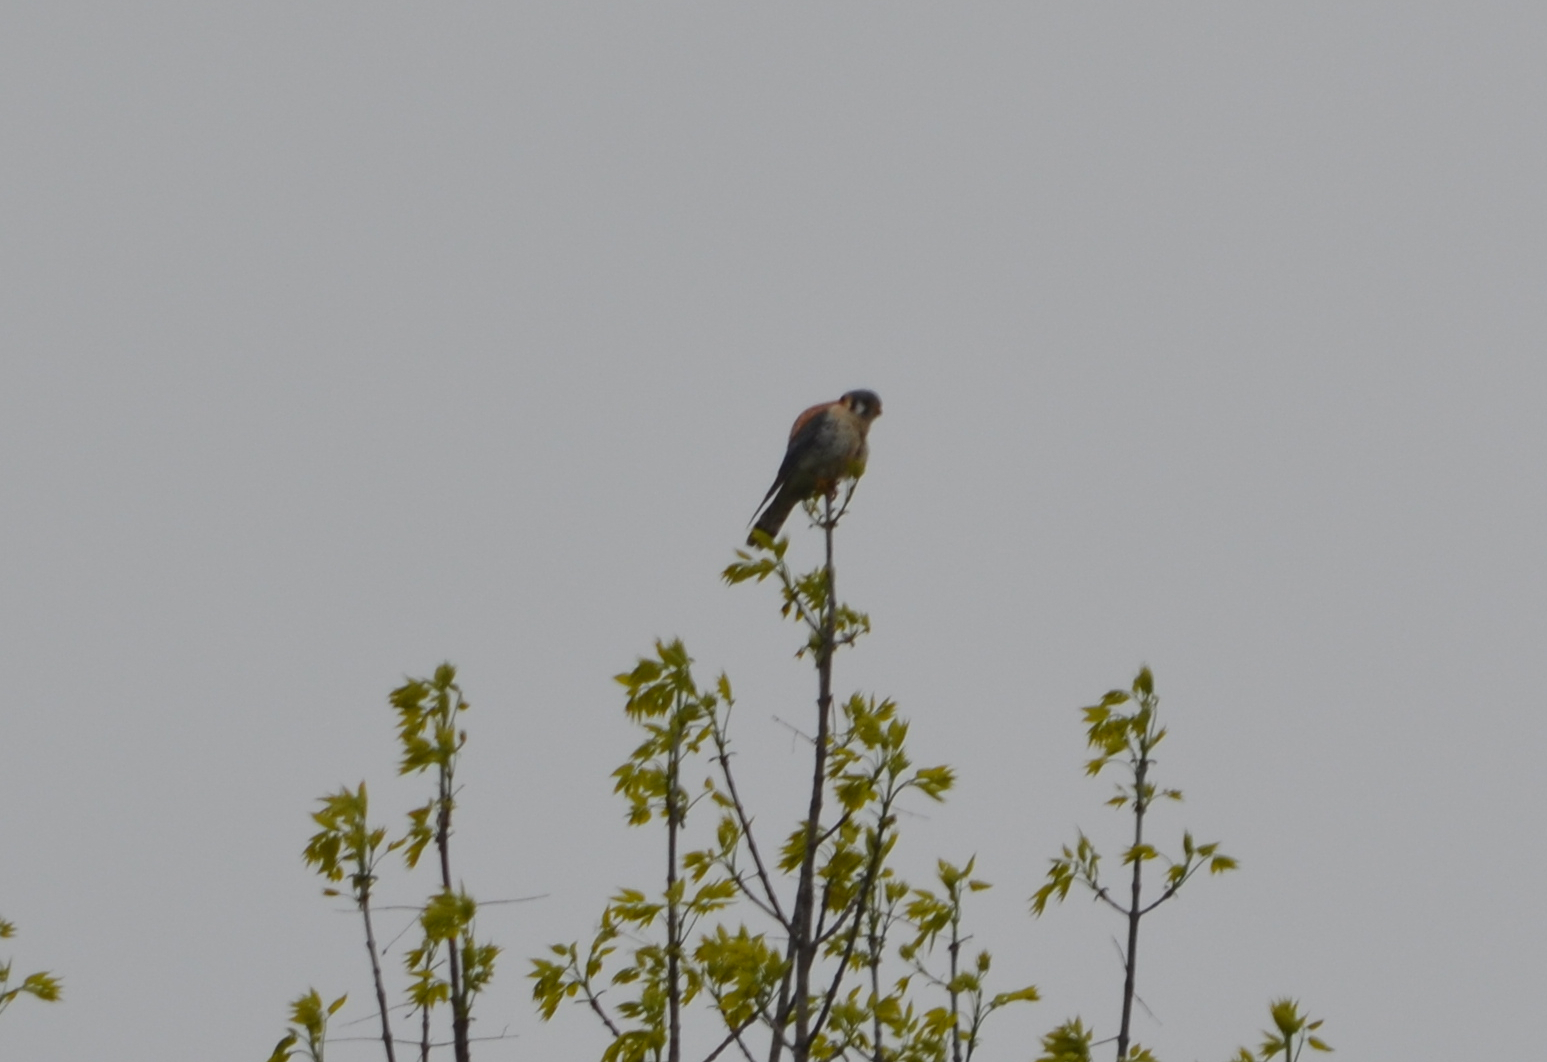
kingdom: Animalia
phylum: Chordata
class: Aves
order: Falconiformes
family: Falconidae
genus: Falco
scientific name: Falco sparverius
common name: American kestrel
